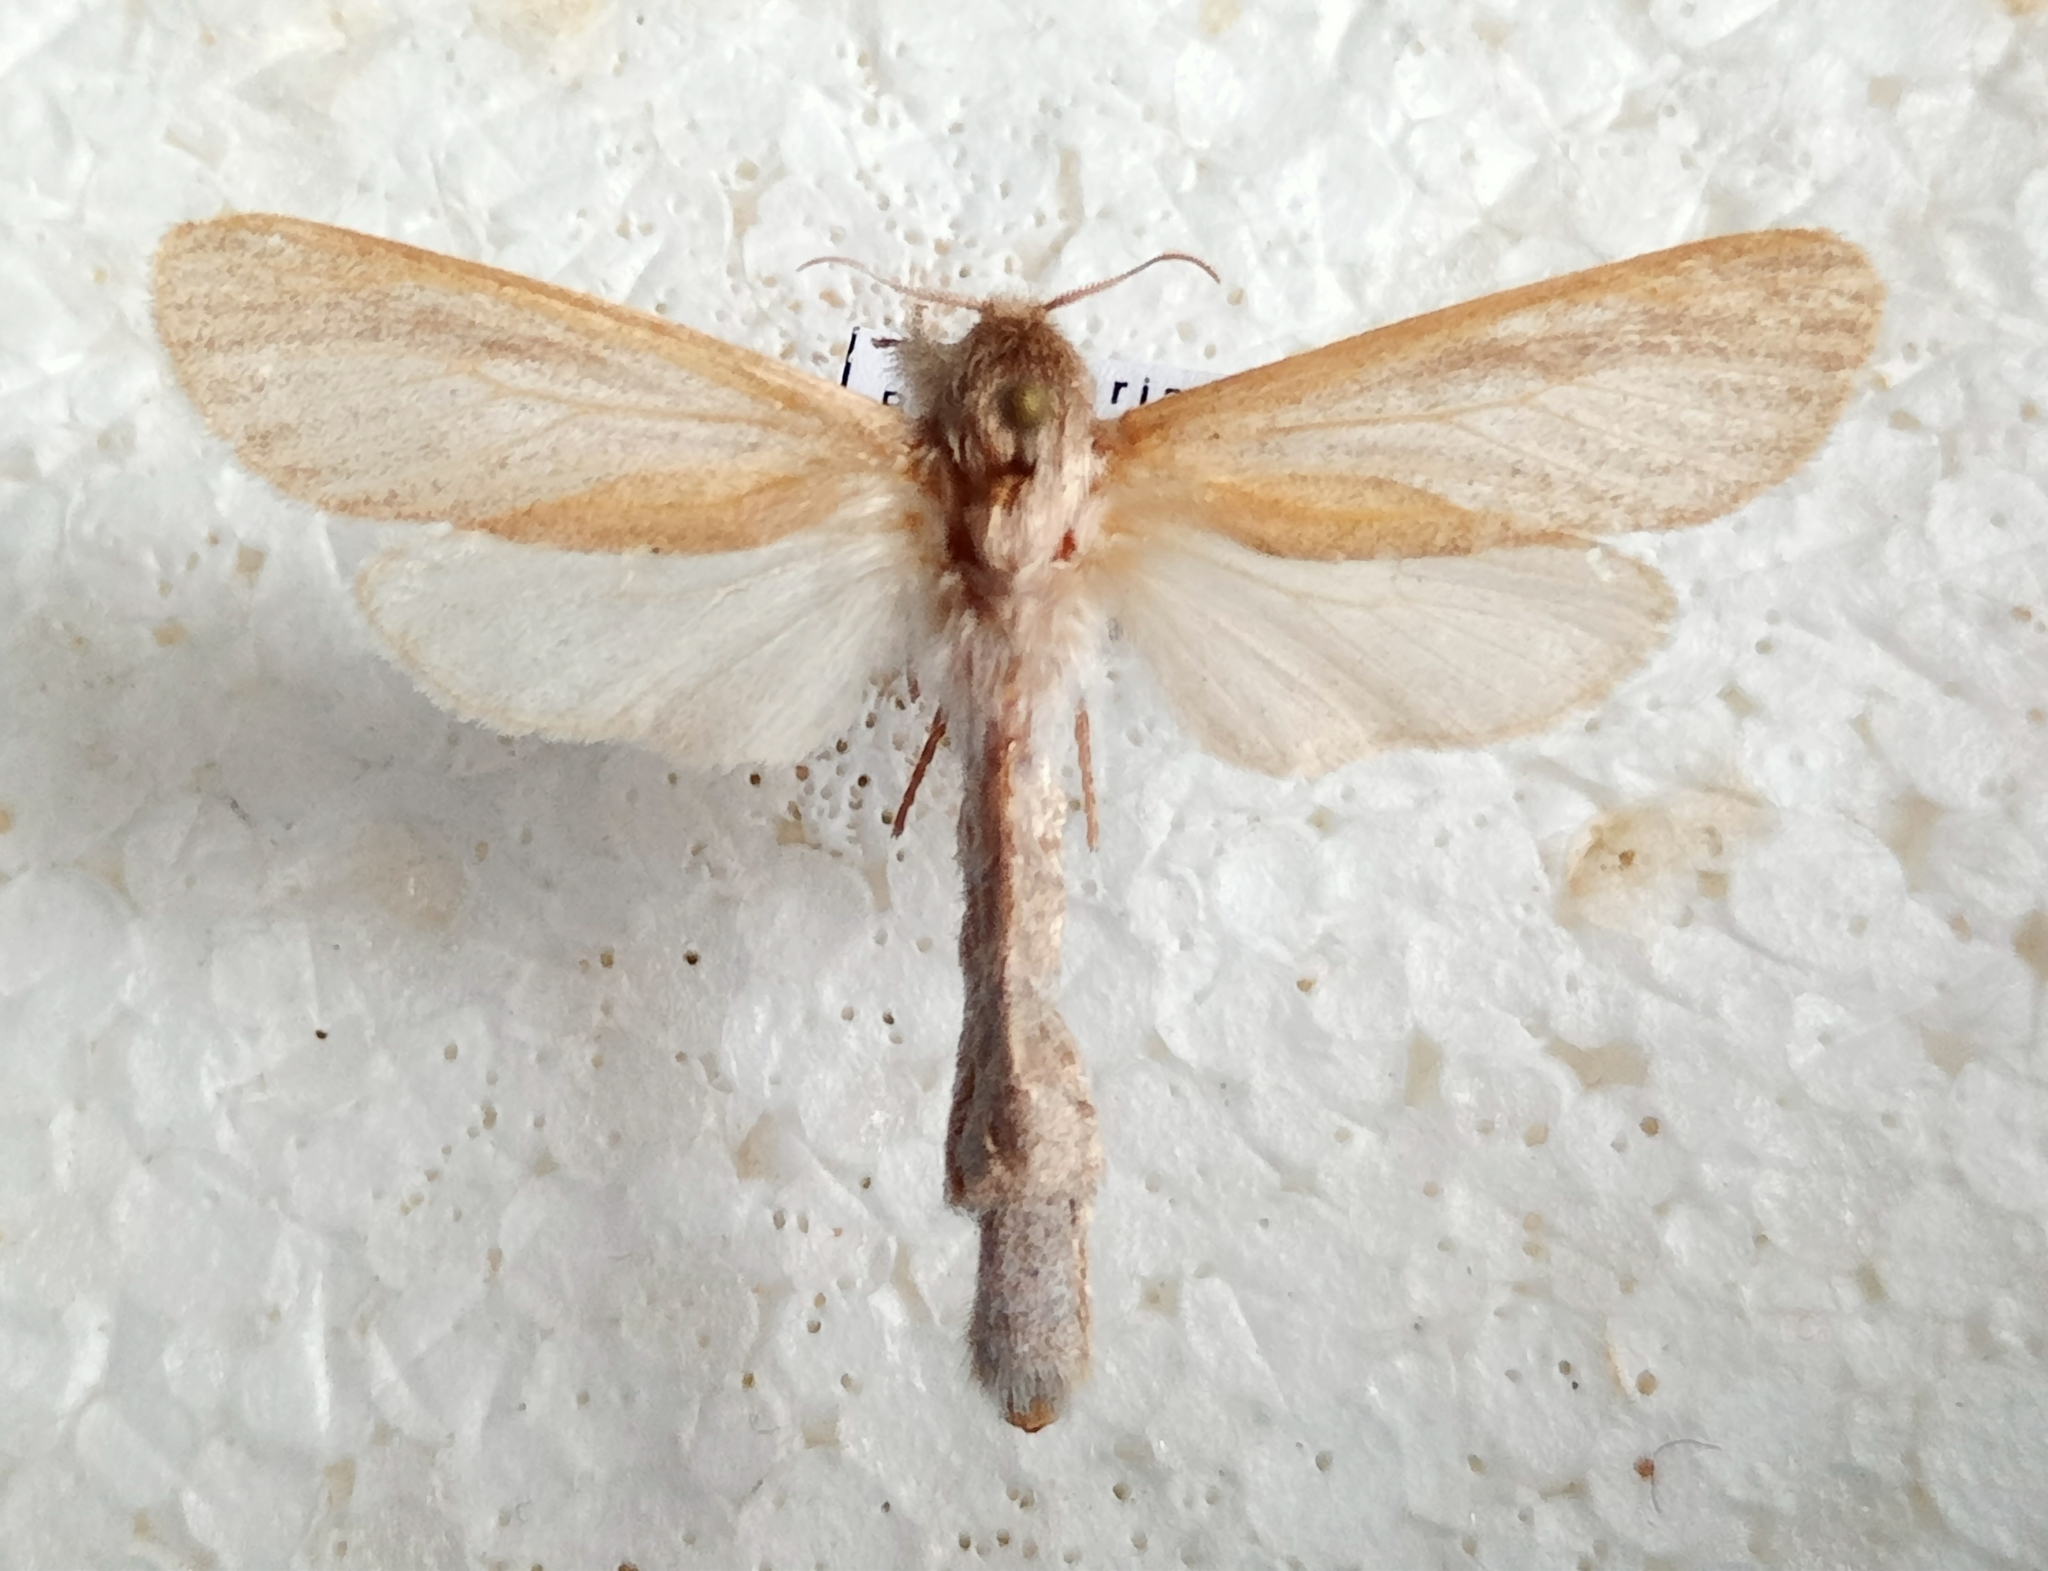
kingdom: Animalia
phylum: Arthropoda
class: Insecta
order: Lepidoptera
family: Cossidae
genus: Phragmataecia
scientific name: Phragmataecia castaneae
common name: Reed leopard
